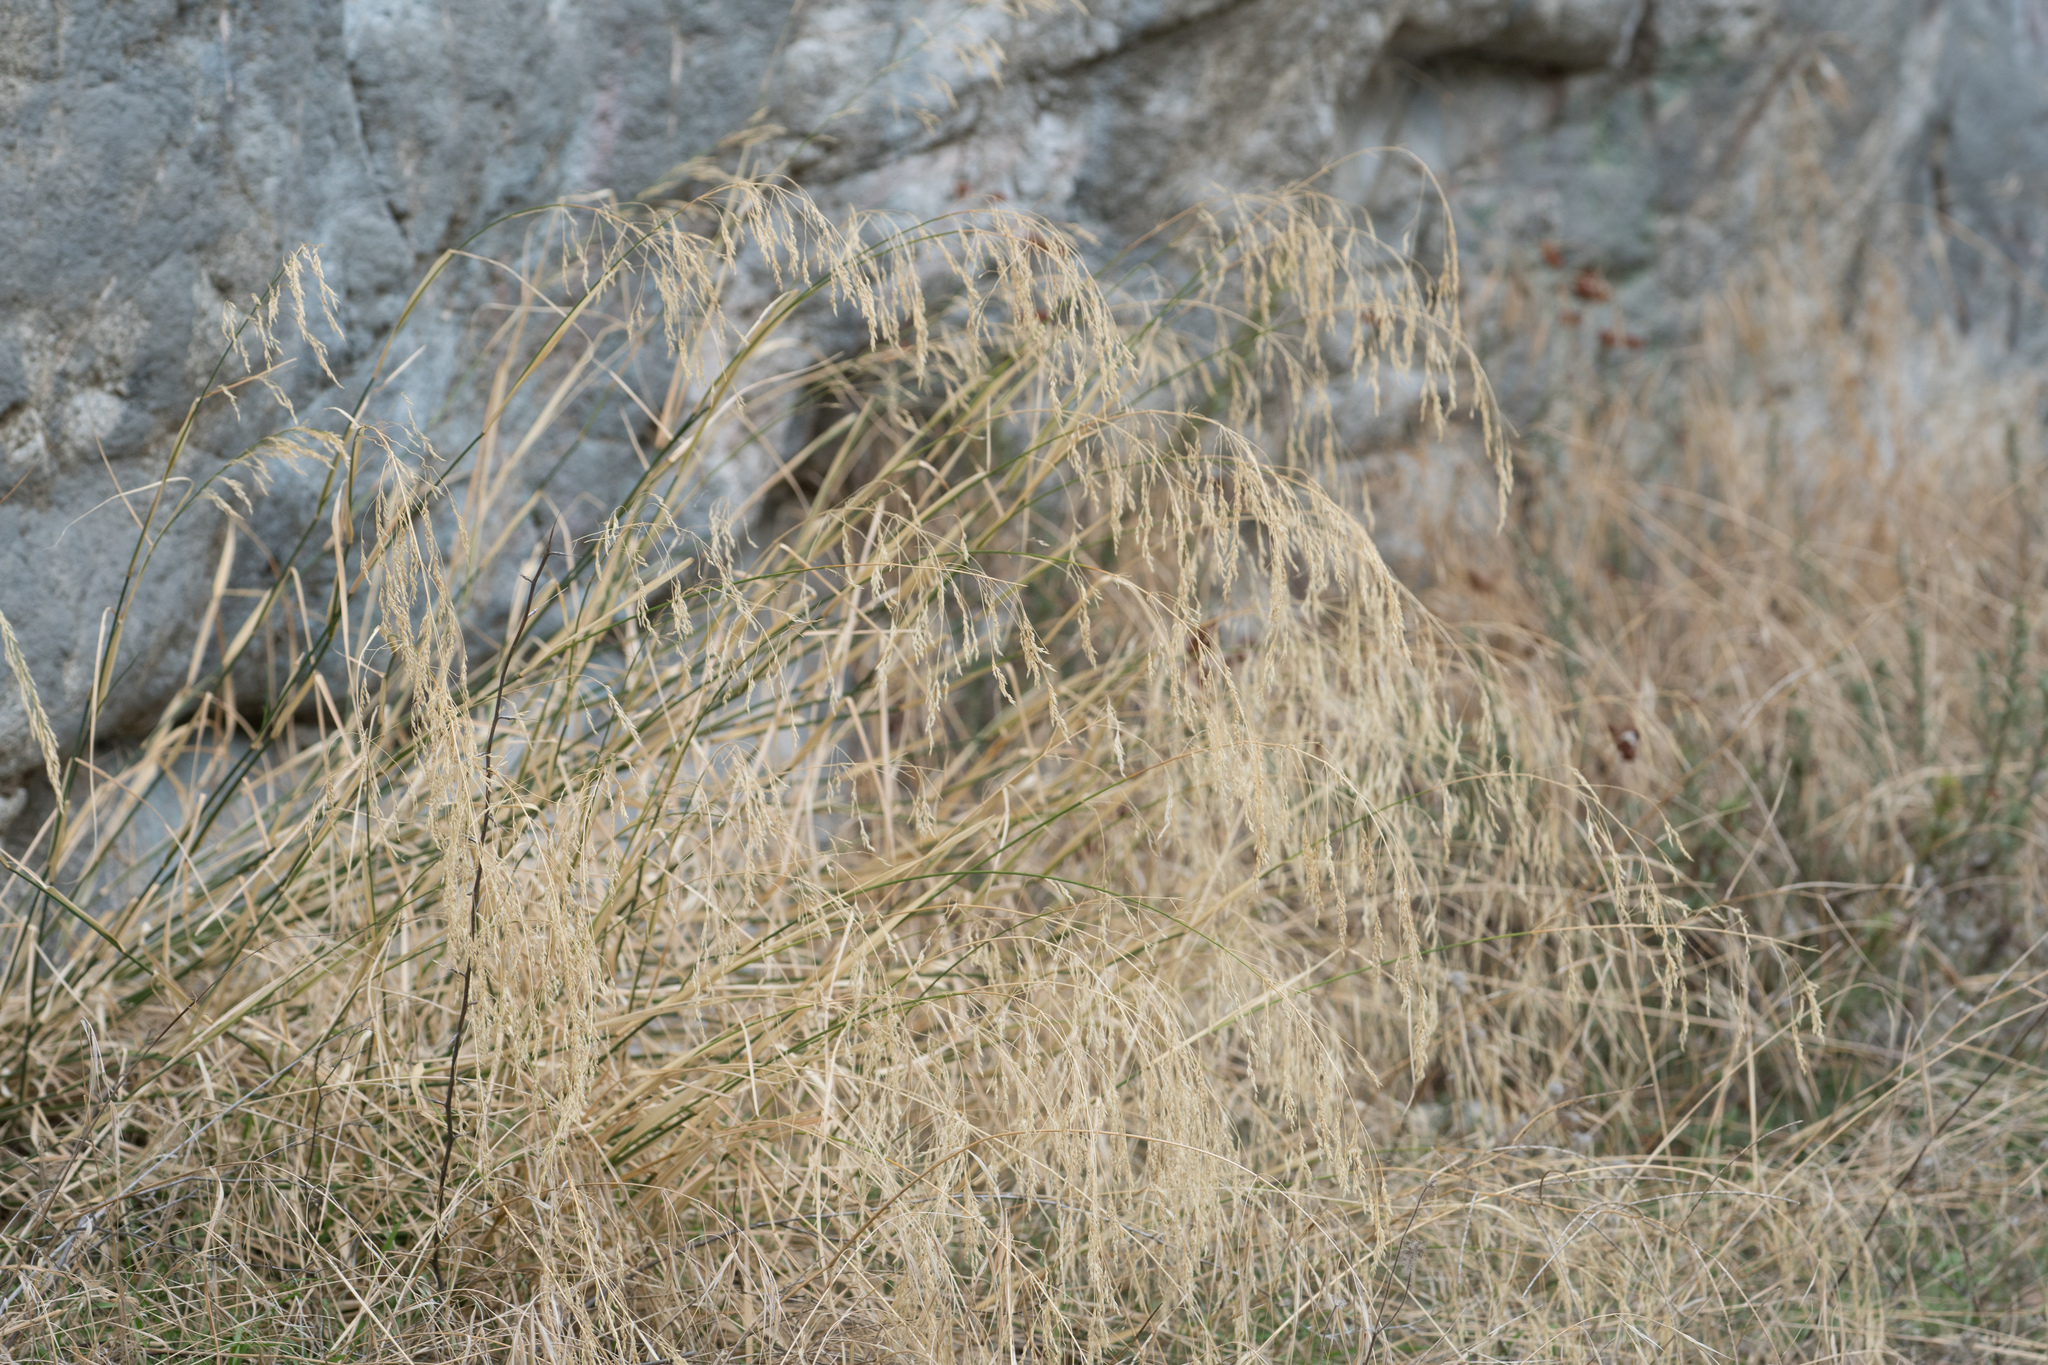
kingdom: Plantae
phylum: Tracheophyta
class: Liliopsida
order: Poales
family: Poaceae
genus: Oloptum
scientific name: Oloptum miliaceum
